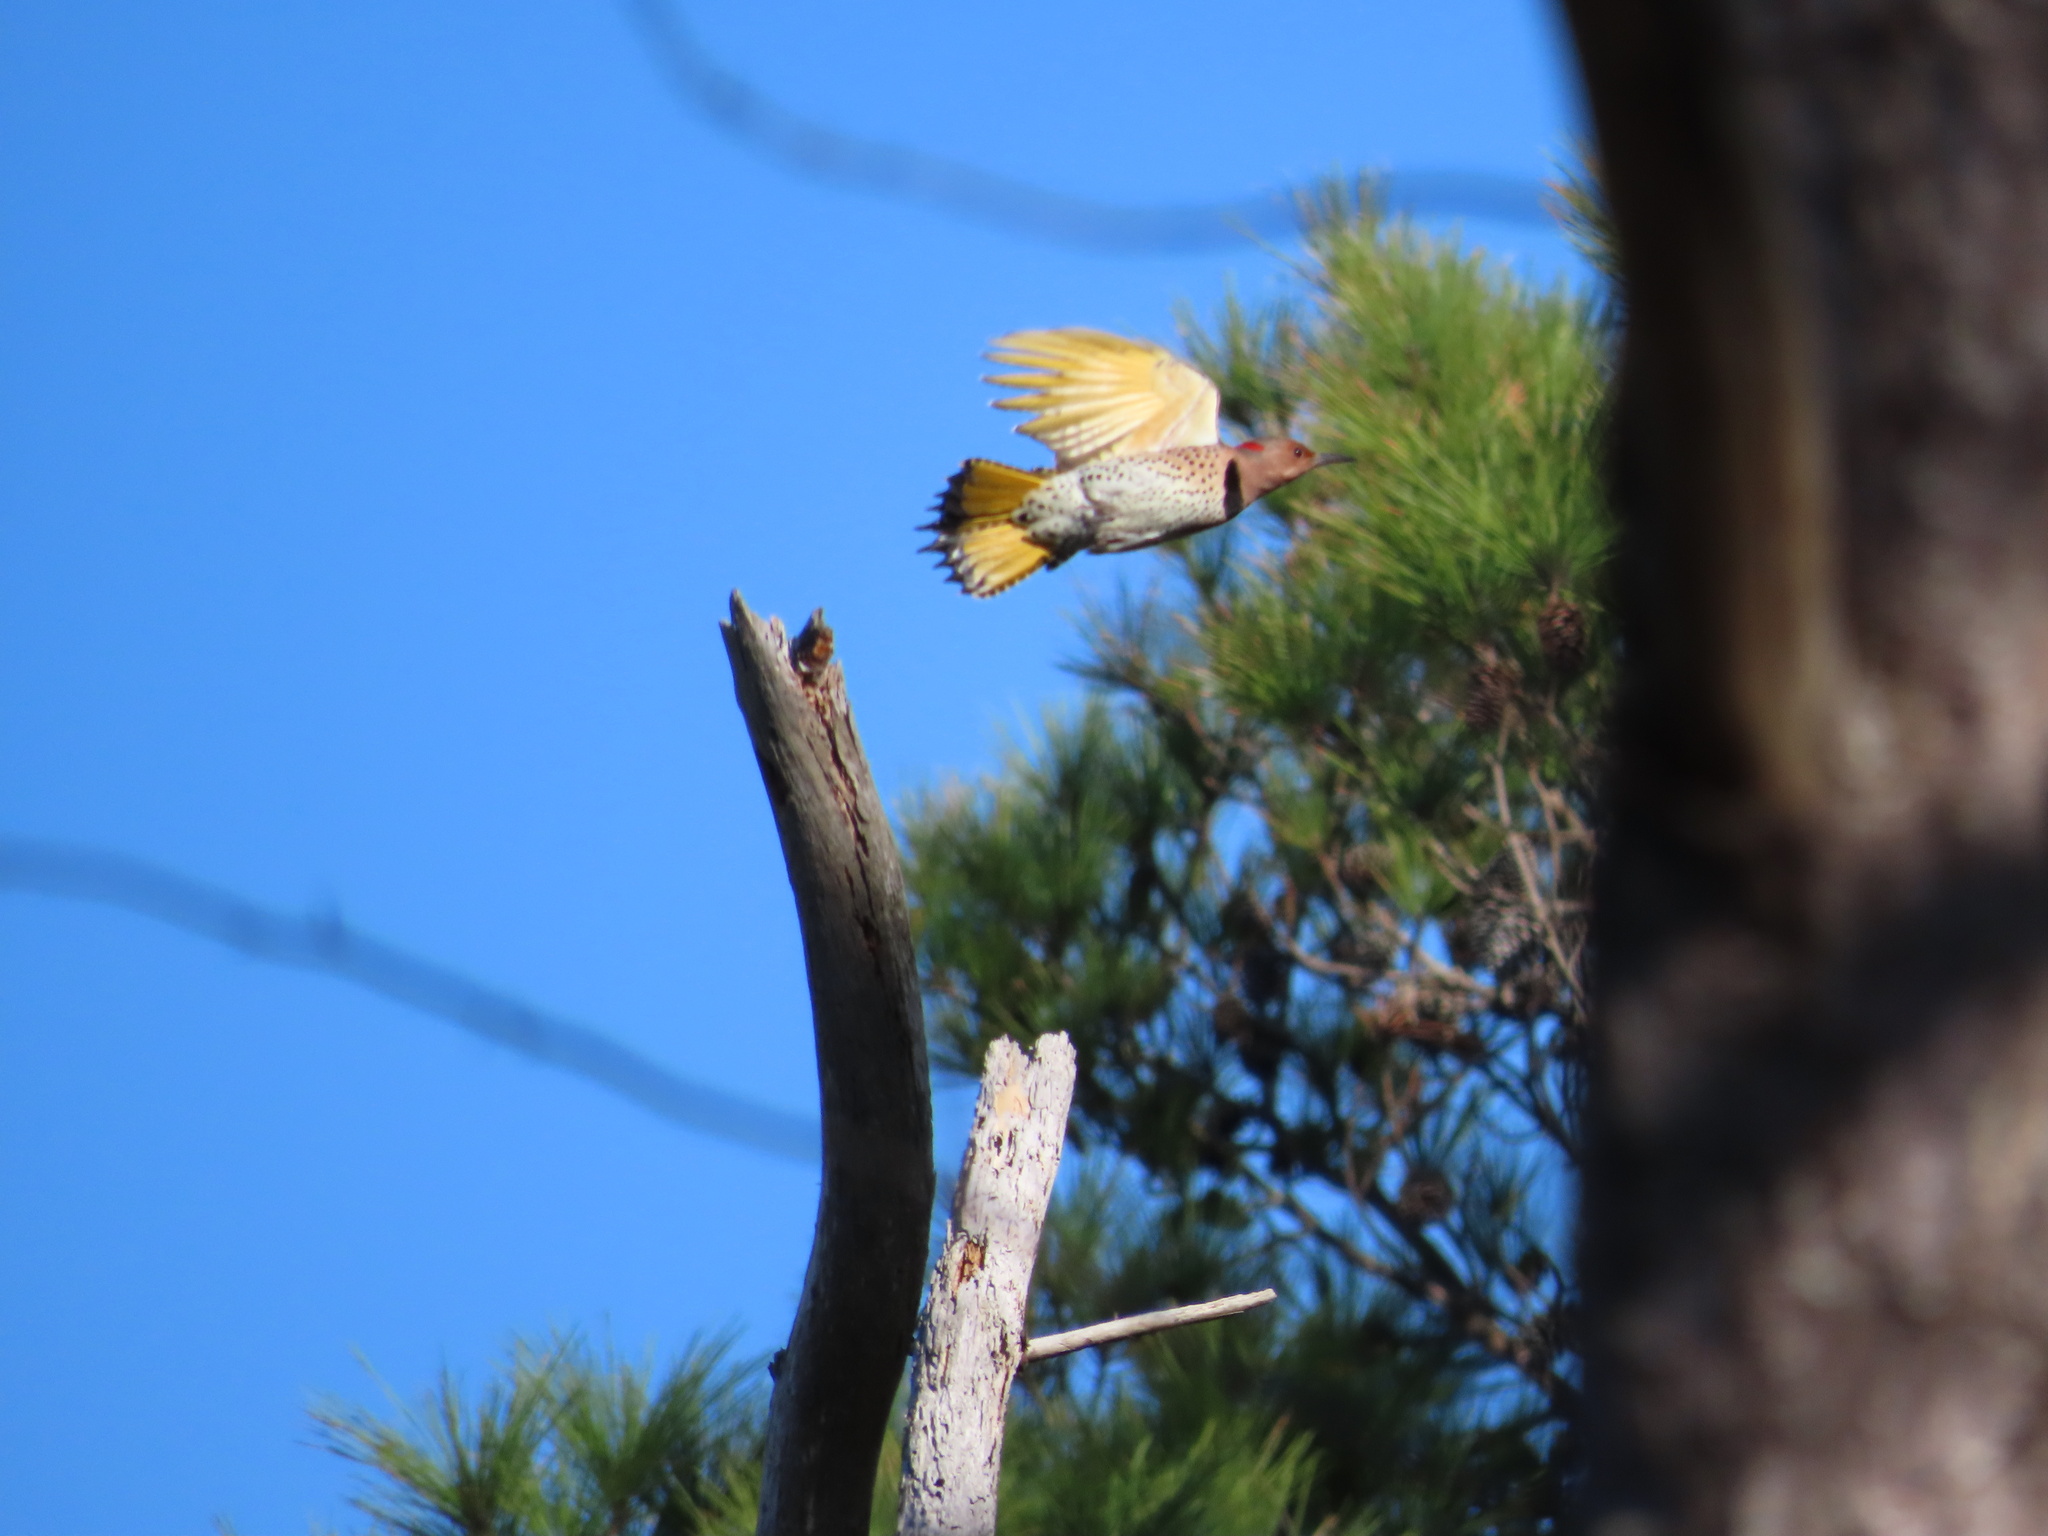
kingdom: Animalia
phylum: Chordata
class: Aves
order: Piciformes
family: Picidae
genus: Colaptes
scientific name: Colaptes auratus
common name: Northern flicker
